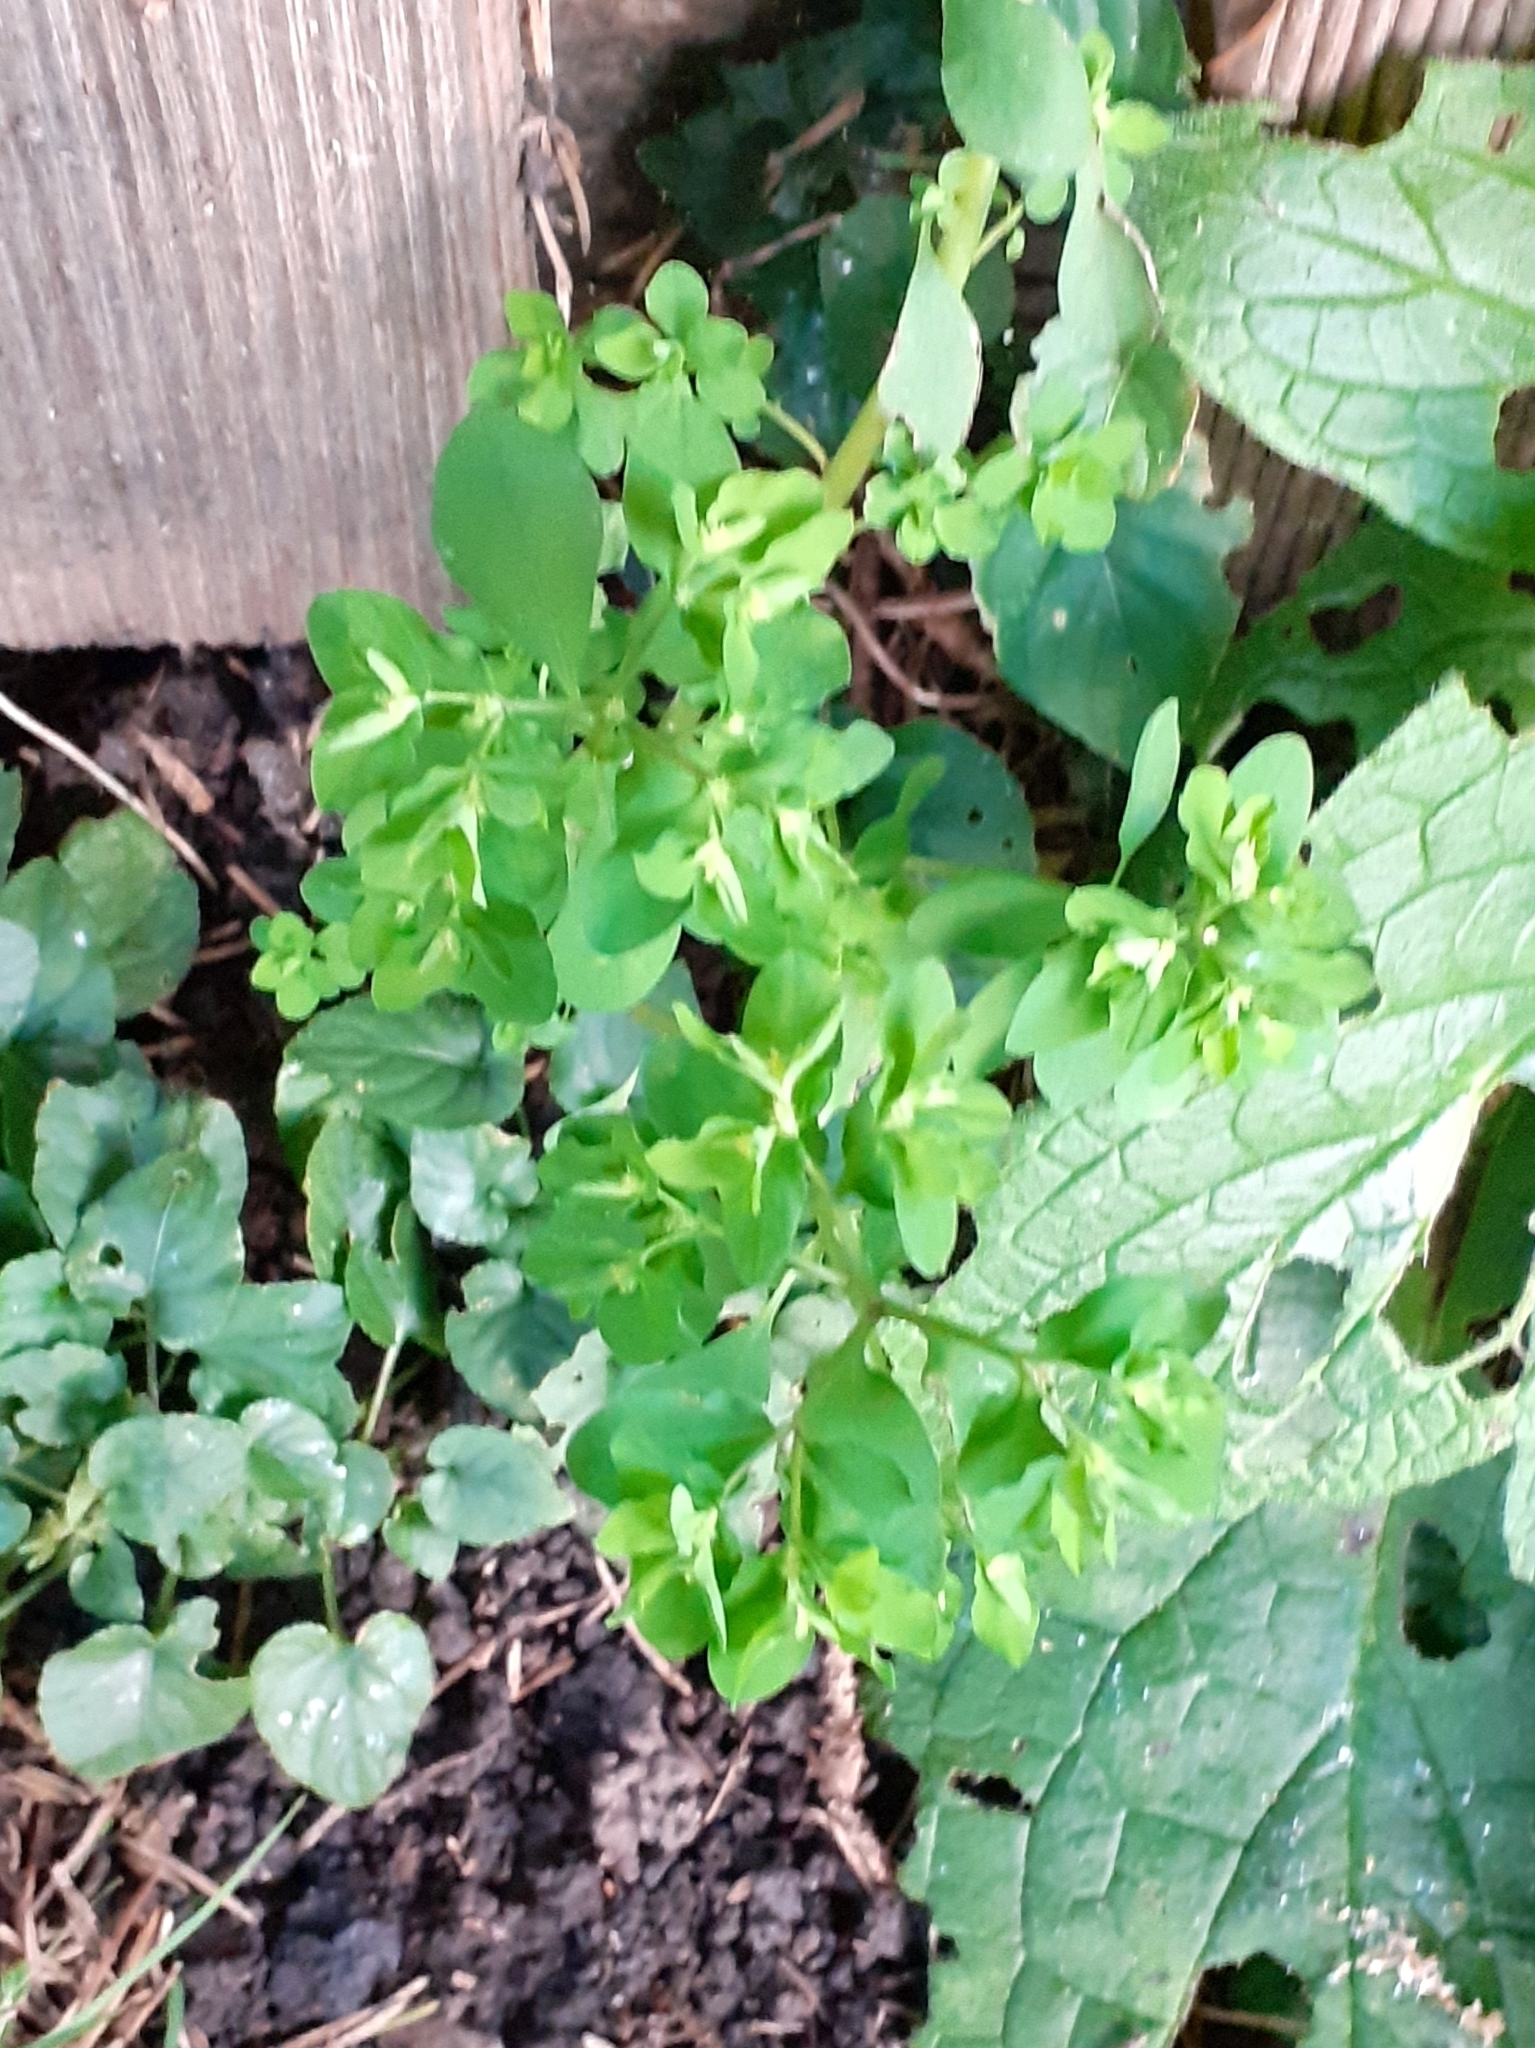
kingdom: Plantae
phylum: Tracheophyta
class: Magnoliopsida
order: Malpighiales
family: Euphorbiaceae
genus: Euphorbia
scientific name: Euphorbia peplus
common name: Petty spurge
